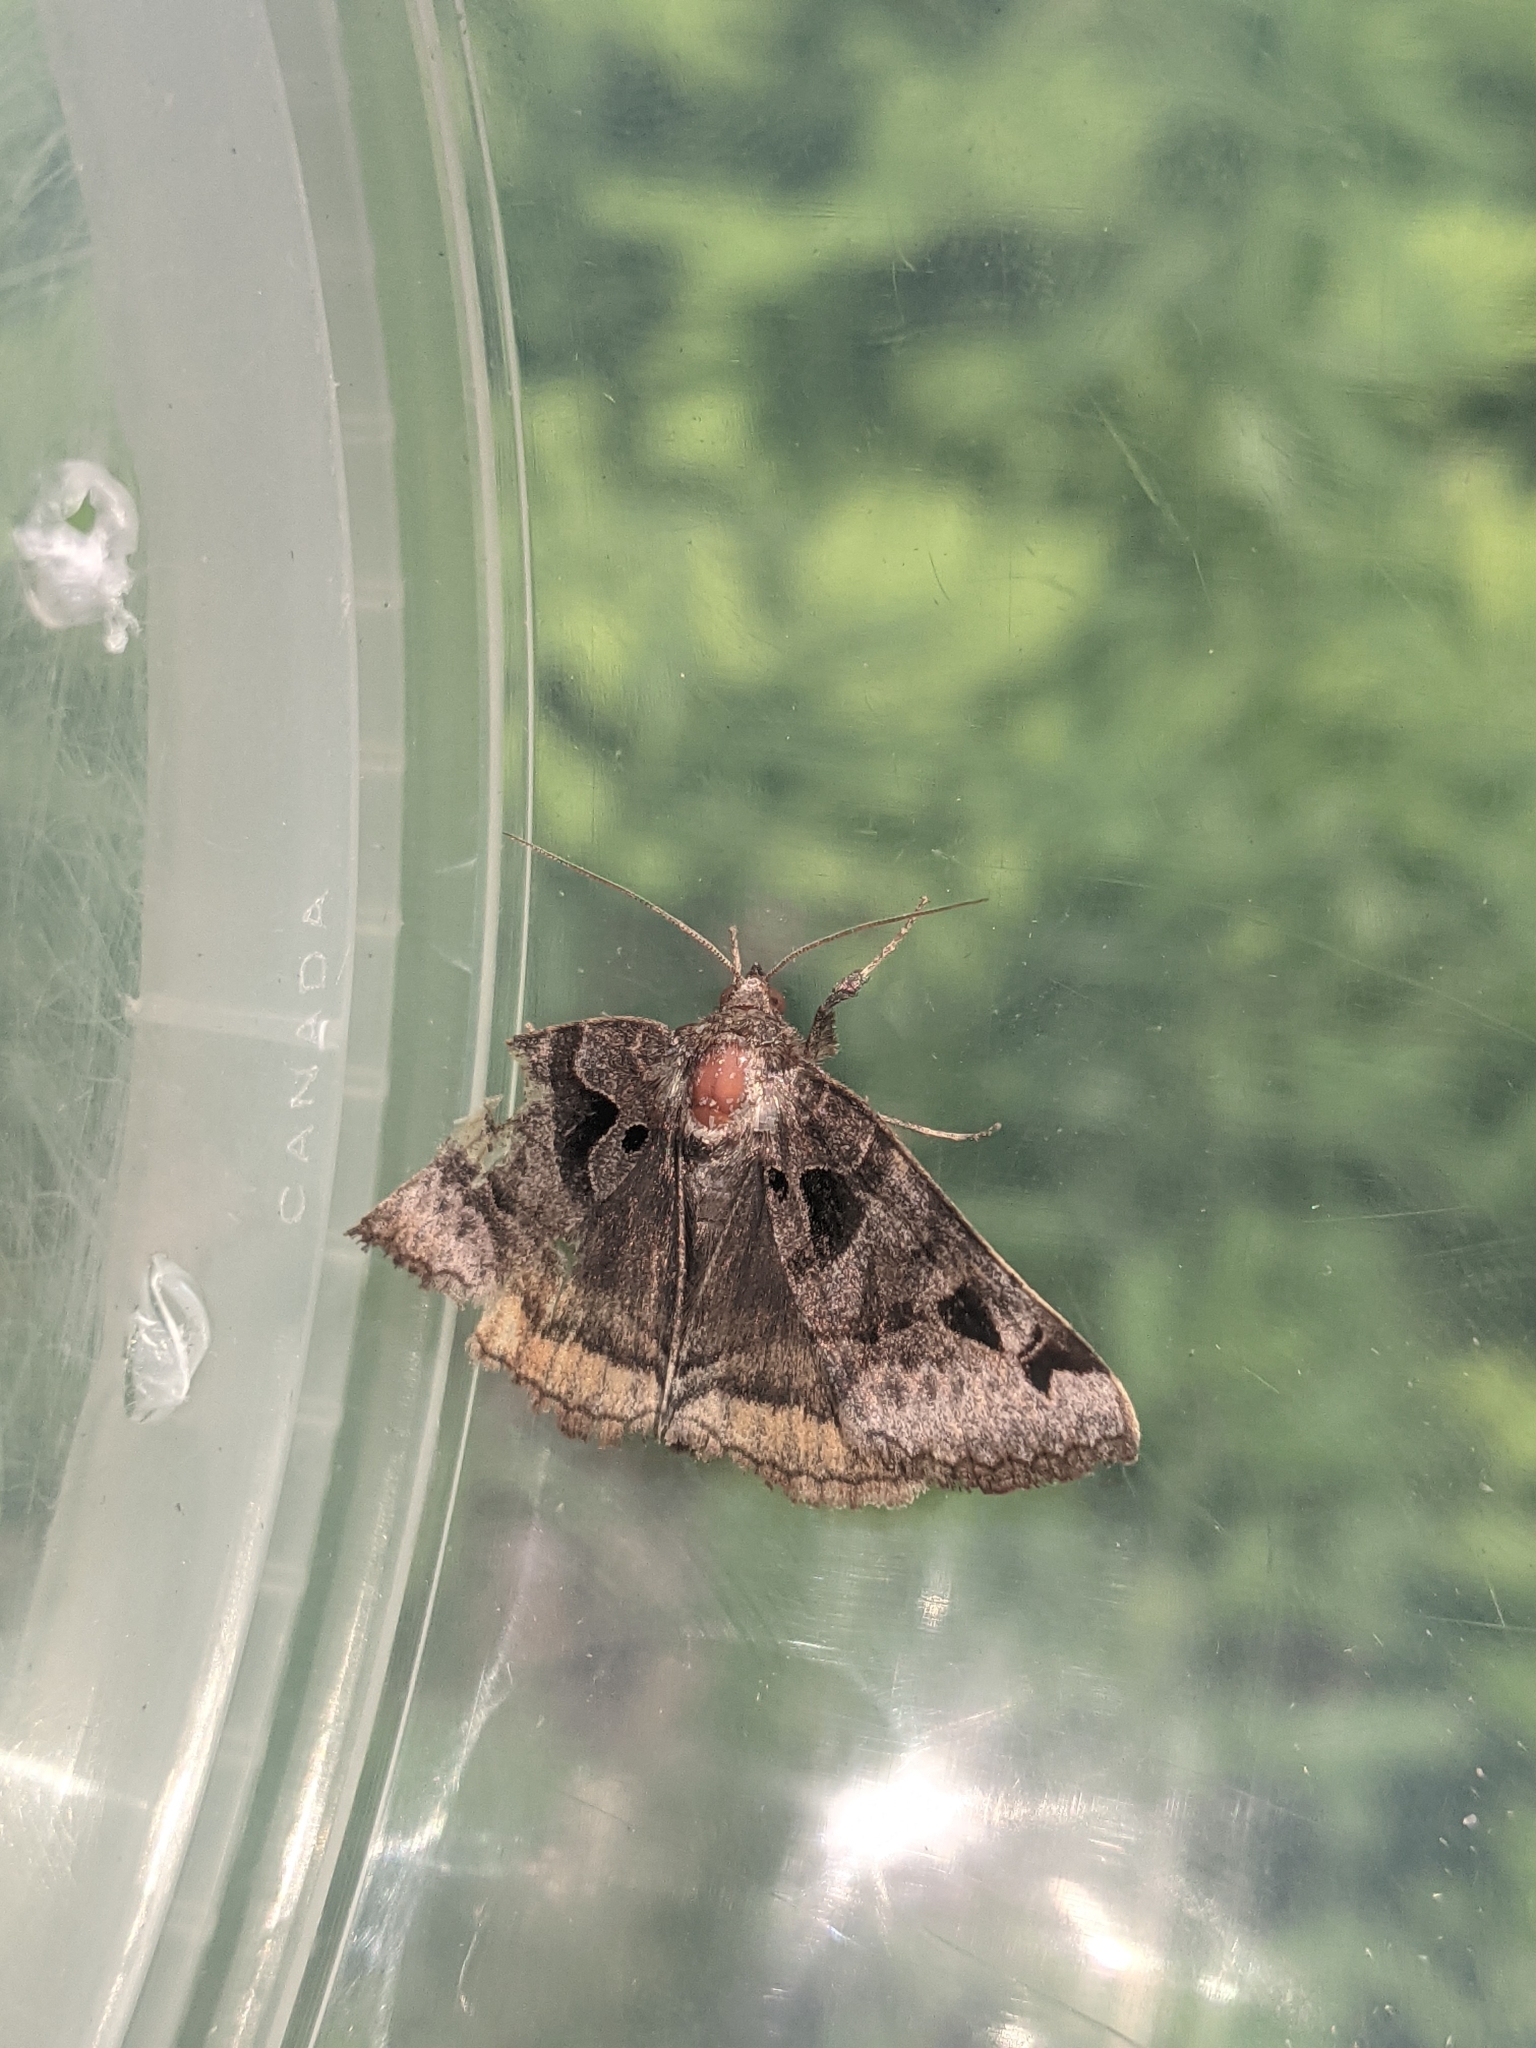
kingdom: Animalia
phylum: Arthropoda
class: Insecta
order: Lepidoptera
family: Erebidae
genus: Euclidia
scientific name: Euclidia cuspidea
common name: Toothed somberwing
